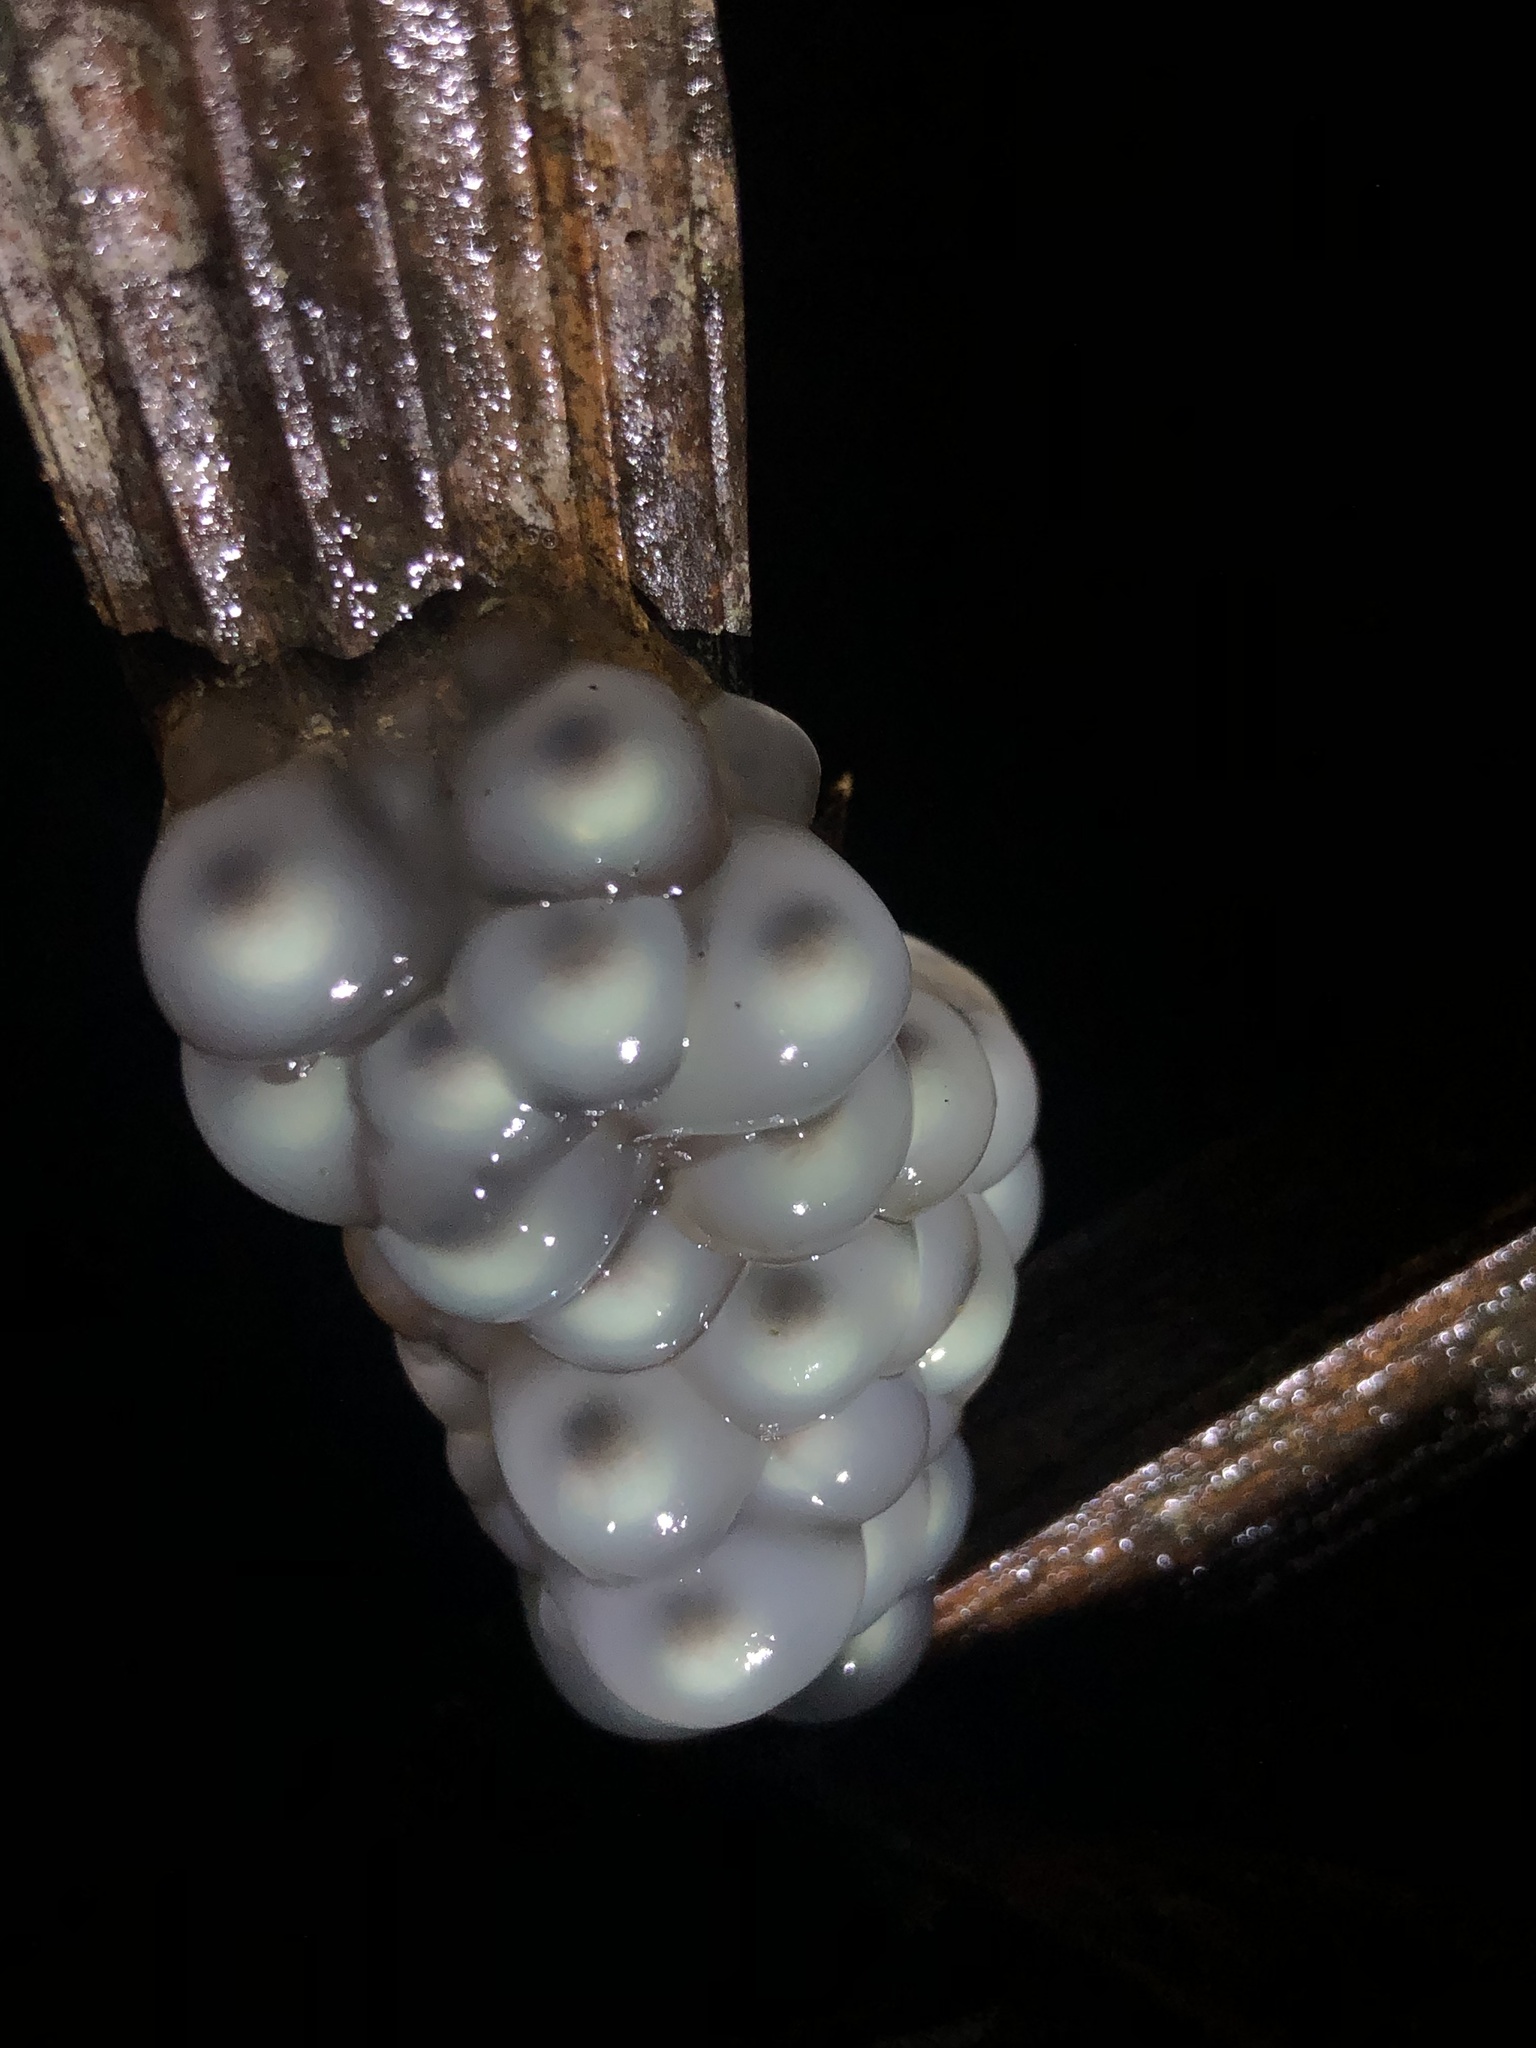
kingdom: Animalia
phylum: Chordata
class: Amphibia
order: Anura
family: Phyllomedusidae
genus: Cruziohyla
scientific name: Cruziohyla sylviae
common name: Sylvia's tree frog
